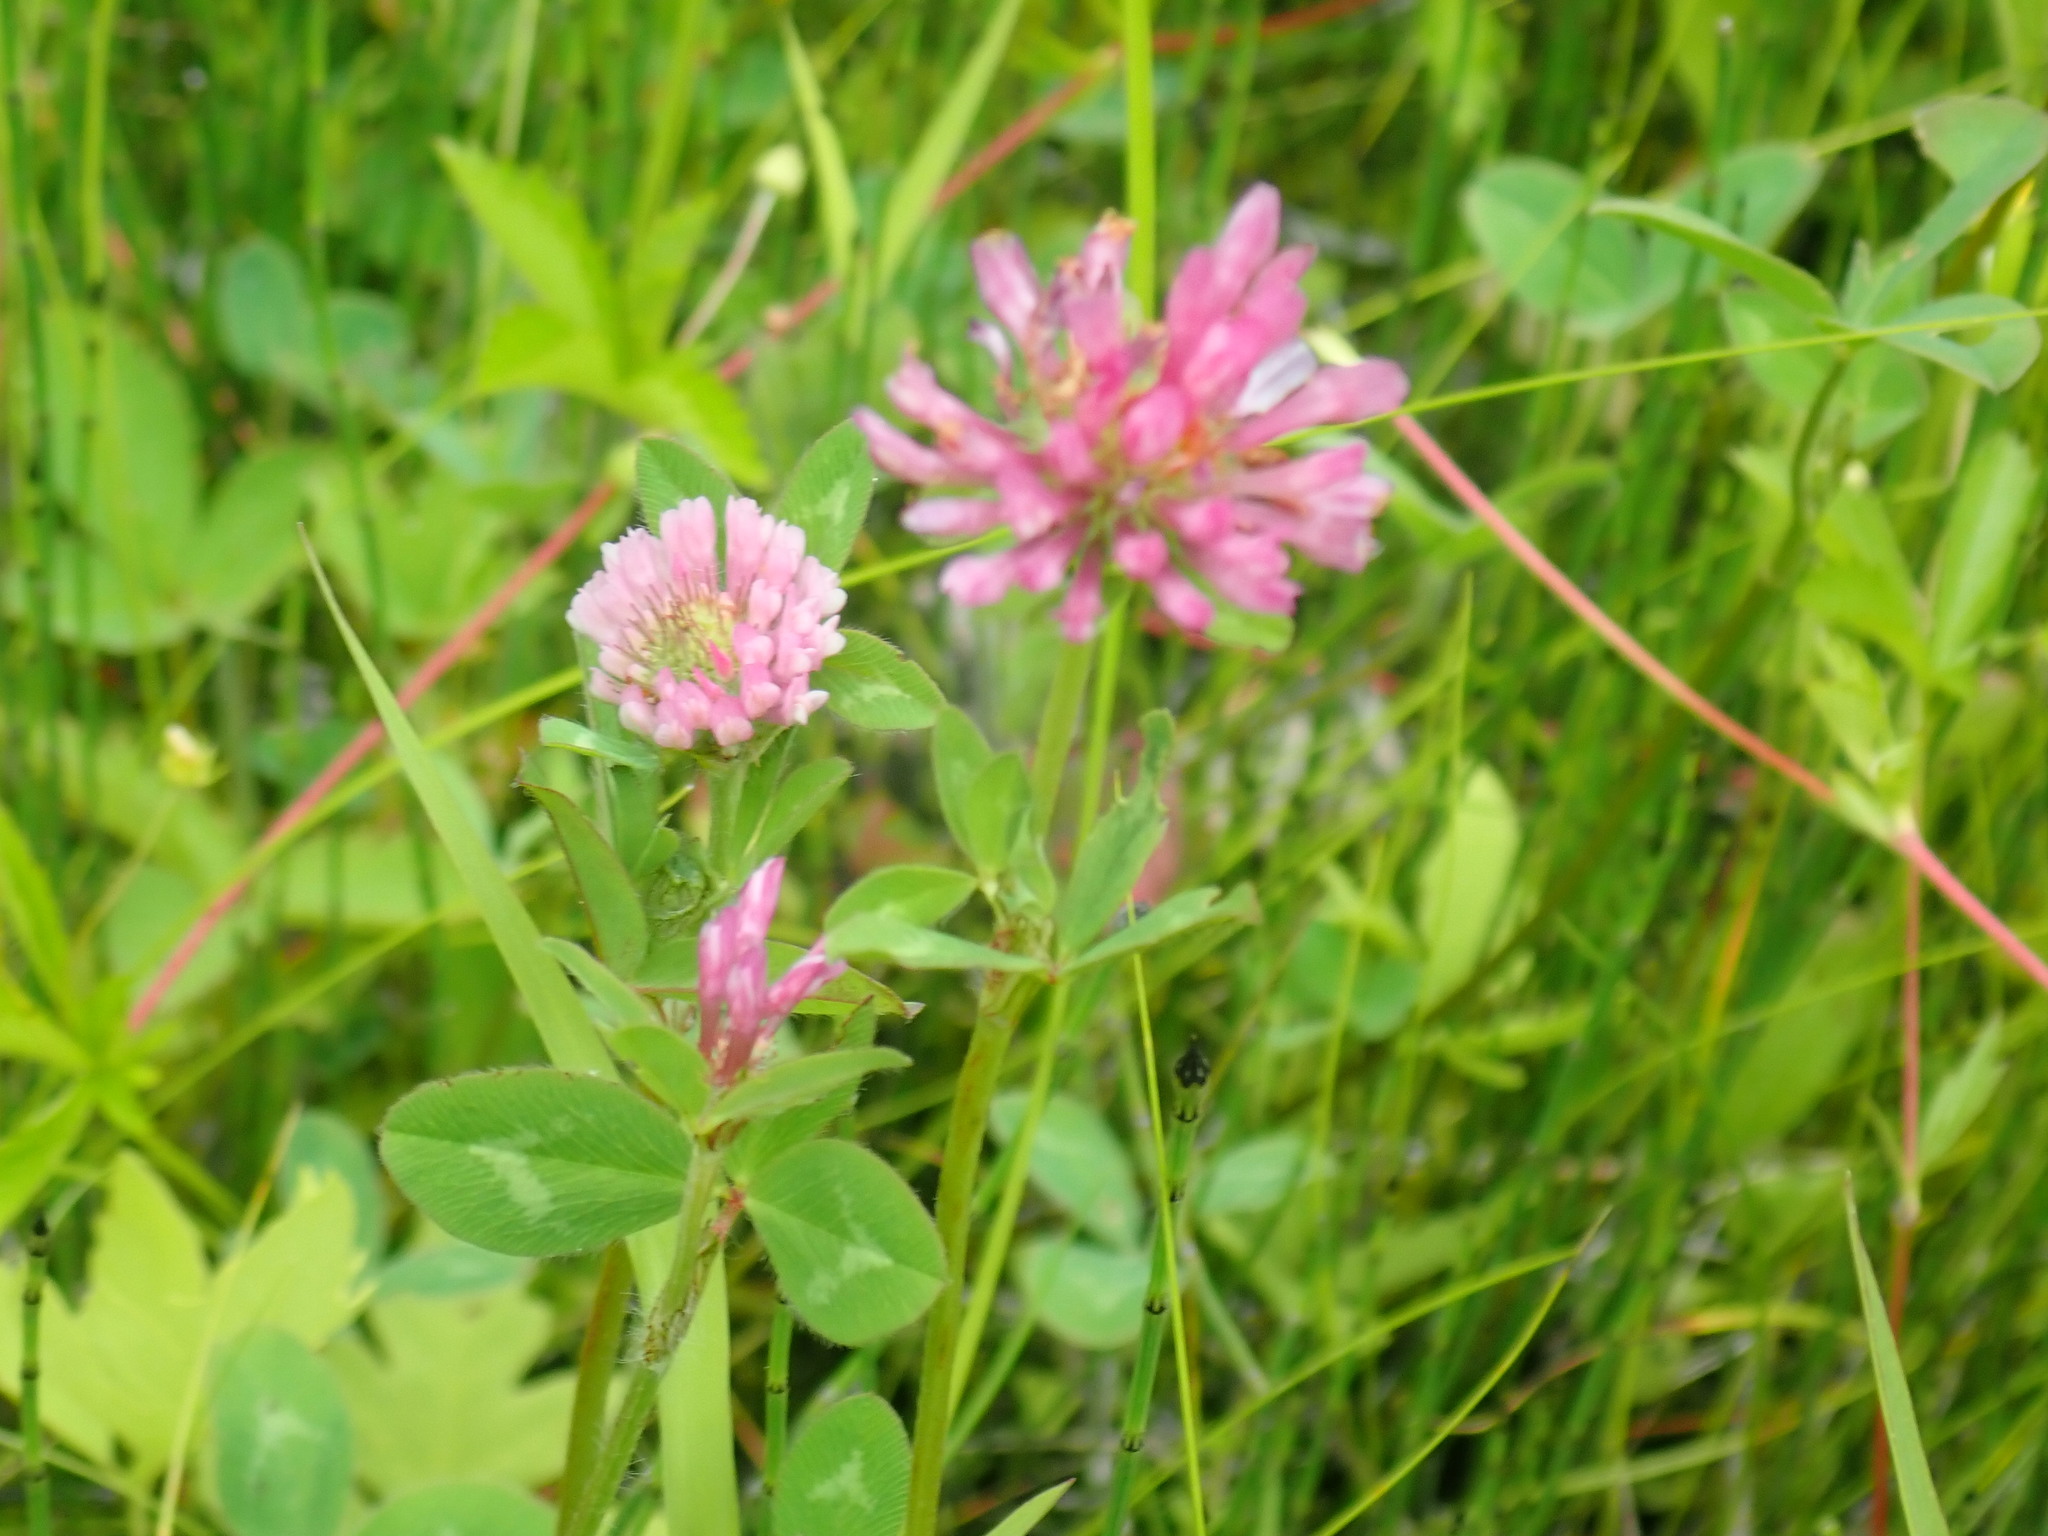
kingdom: Plantae
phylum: Tracheophyta
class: Magnoliopsida
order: Fabales
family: Fabaceae
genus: Trifolium
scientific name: Trifolium pratense
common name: Red clover
